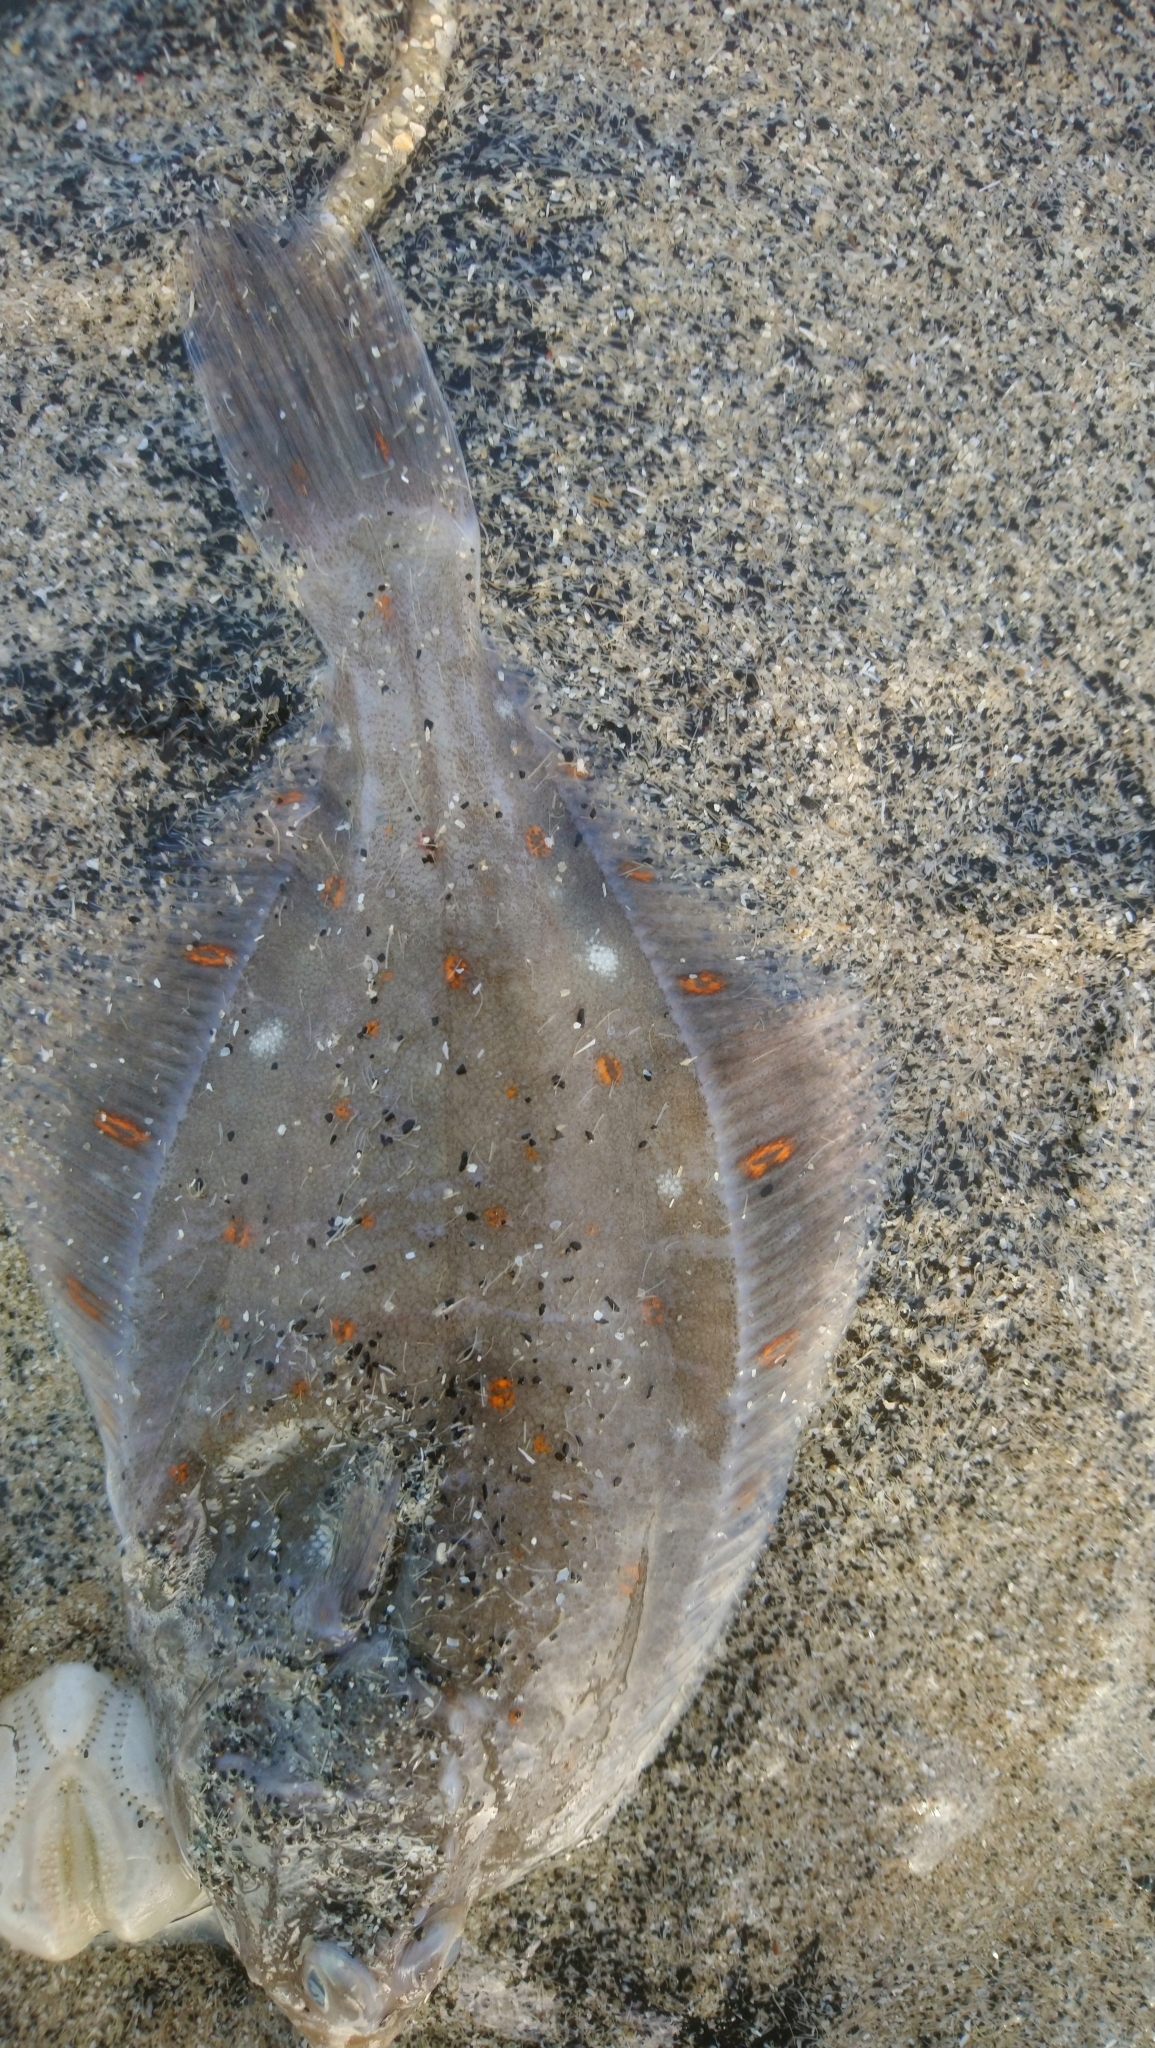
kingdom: Animalia
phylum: Chordata
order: Pleuronectiformes
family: Pleuronectidae
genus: Pleuronectes
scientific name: Pleuronectes platessa
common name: Plaice
